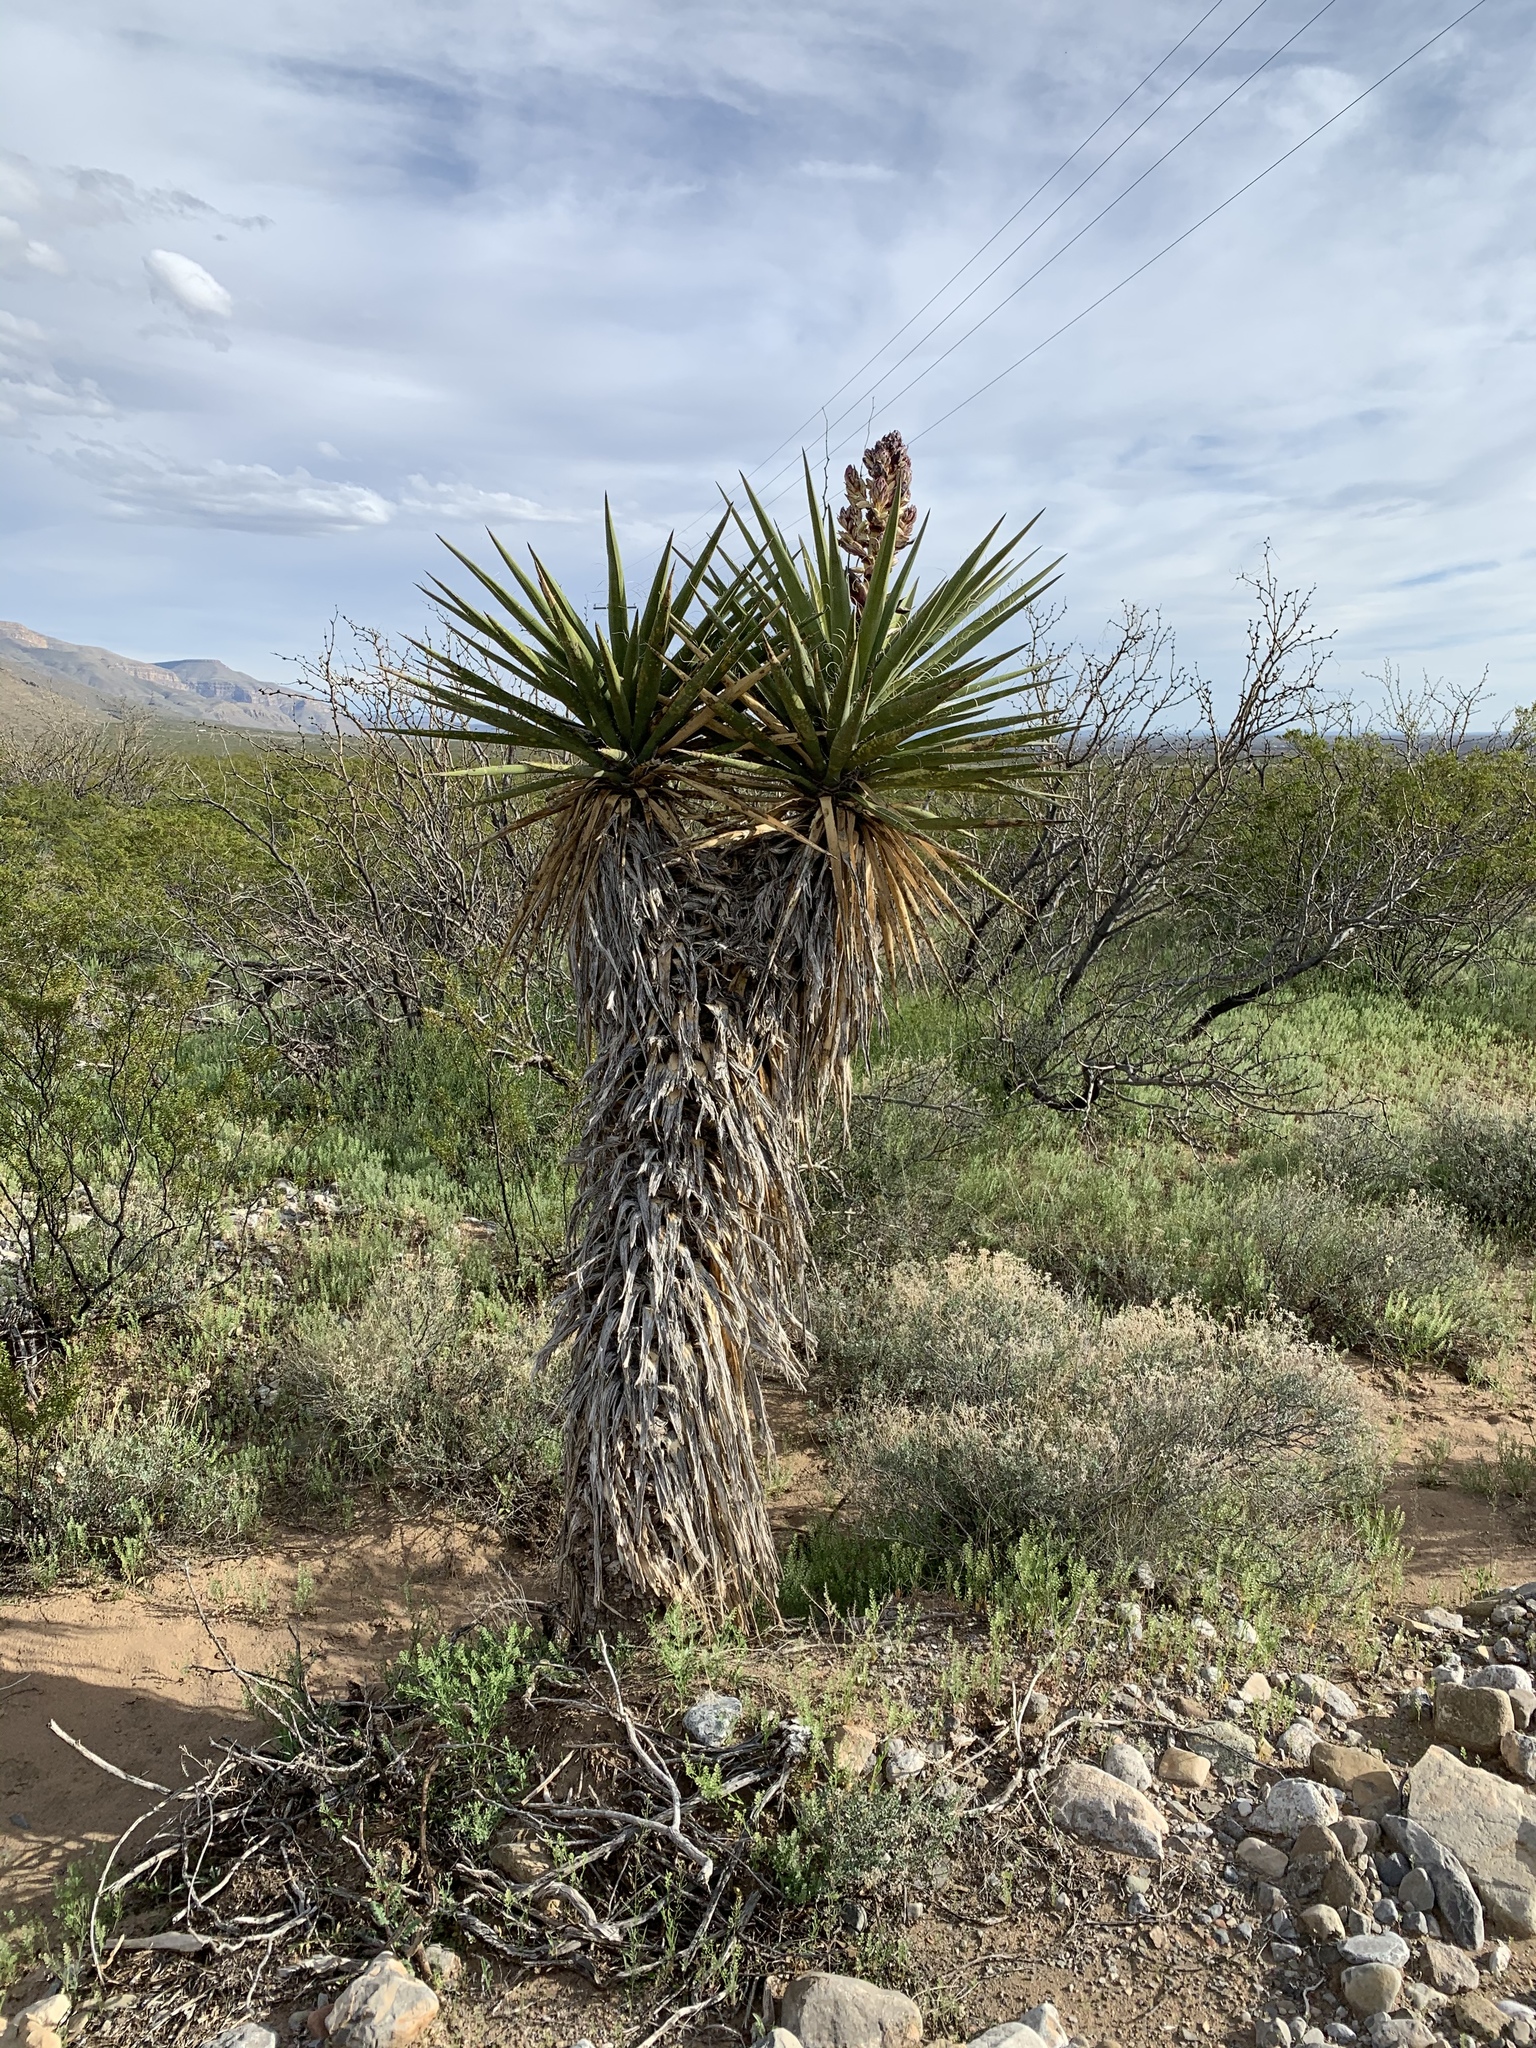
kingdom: Plantae
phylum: Tracheophyta
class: Liliopsida
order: Asparagales
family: Asparagaceae
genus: Yucca
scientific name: Yucca treculiana
